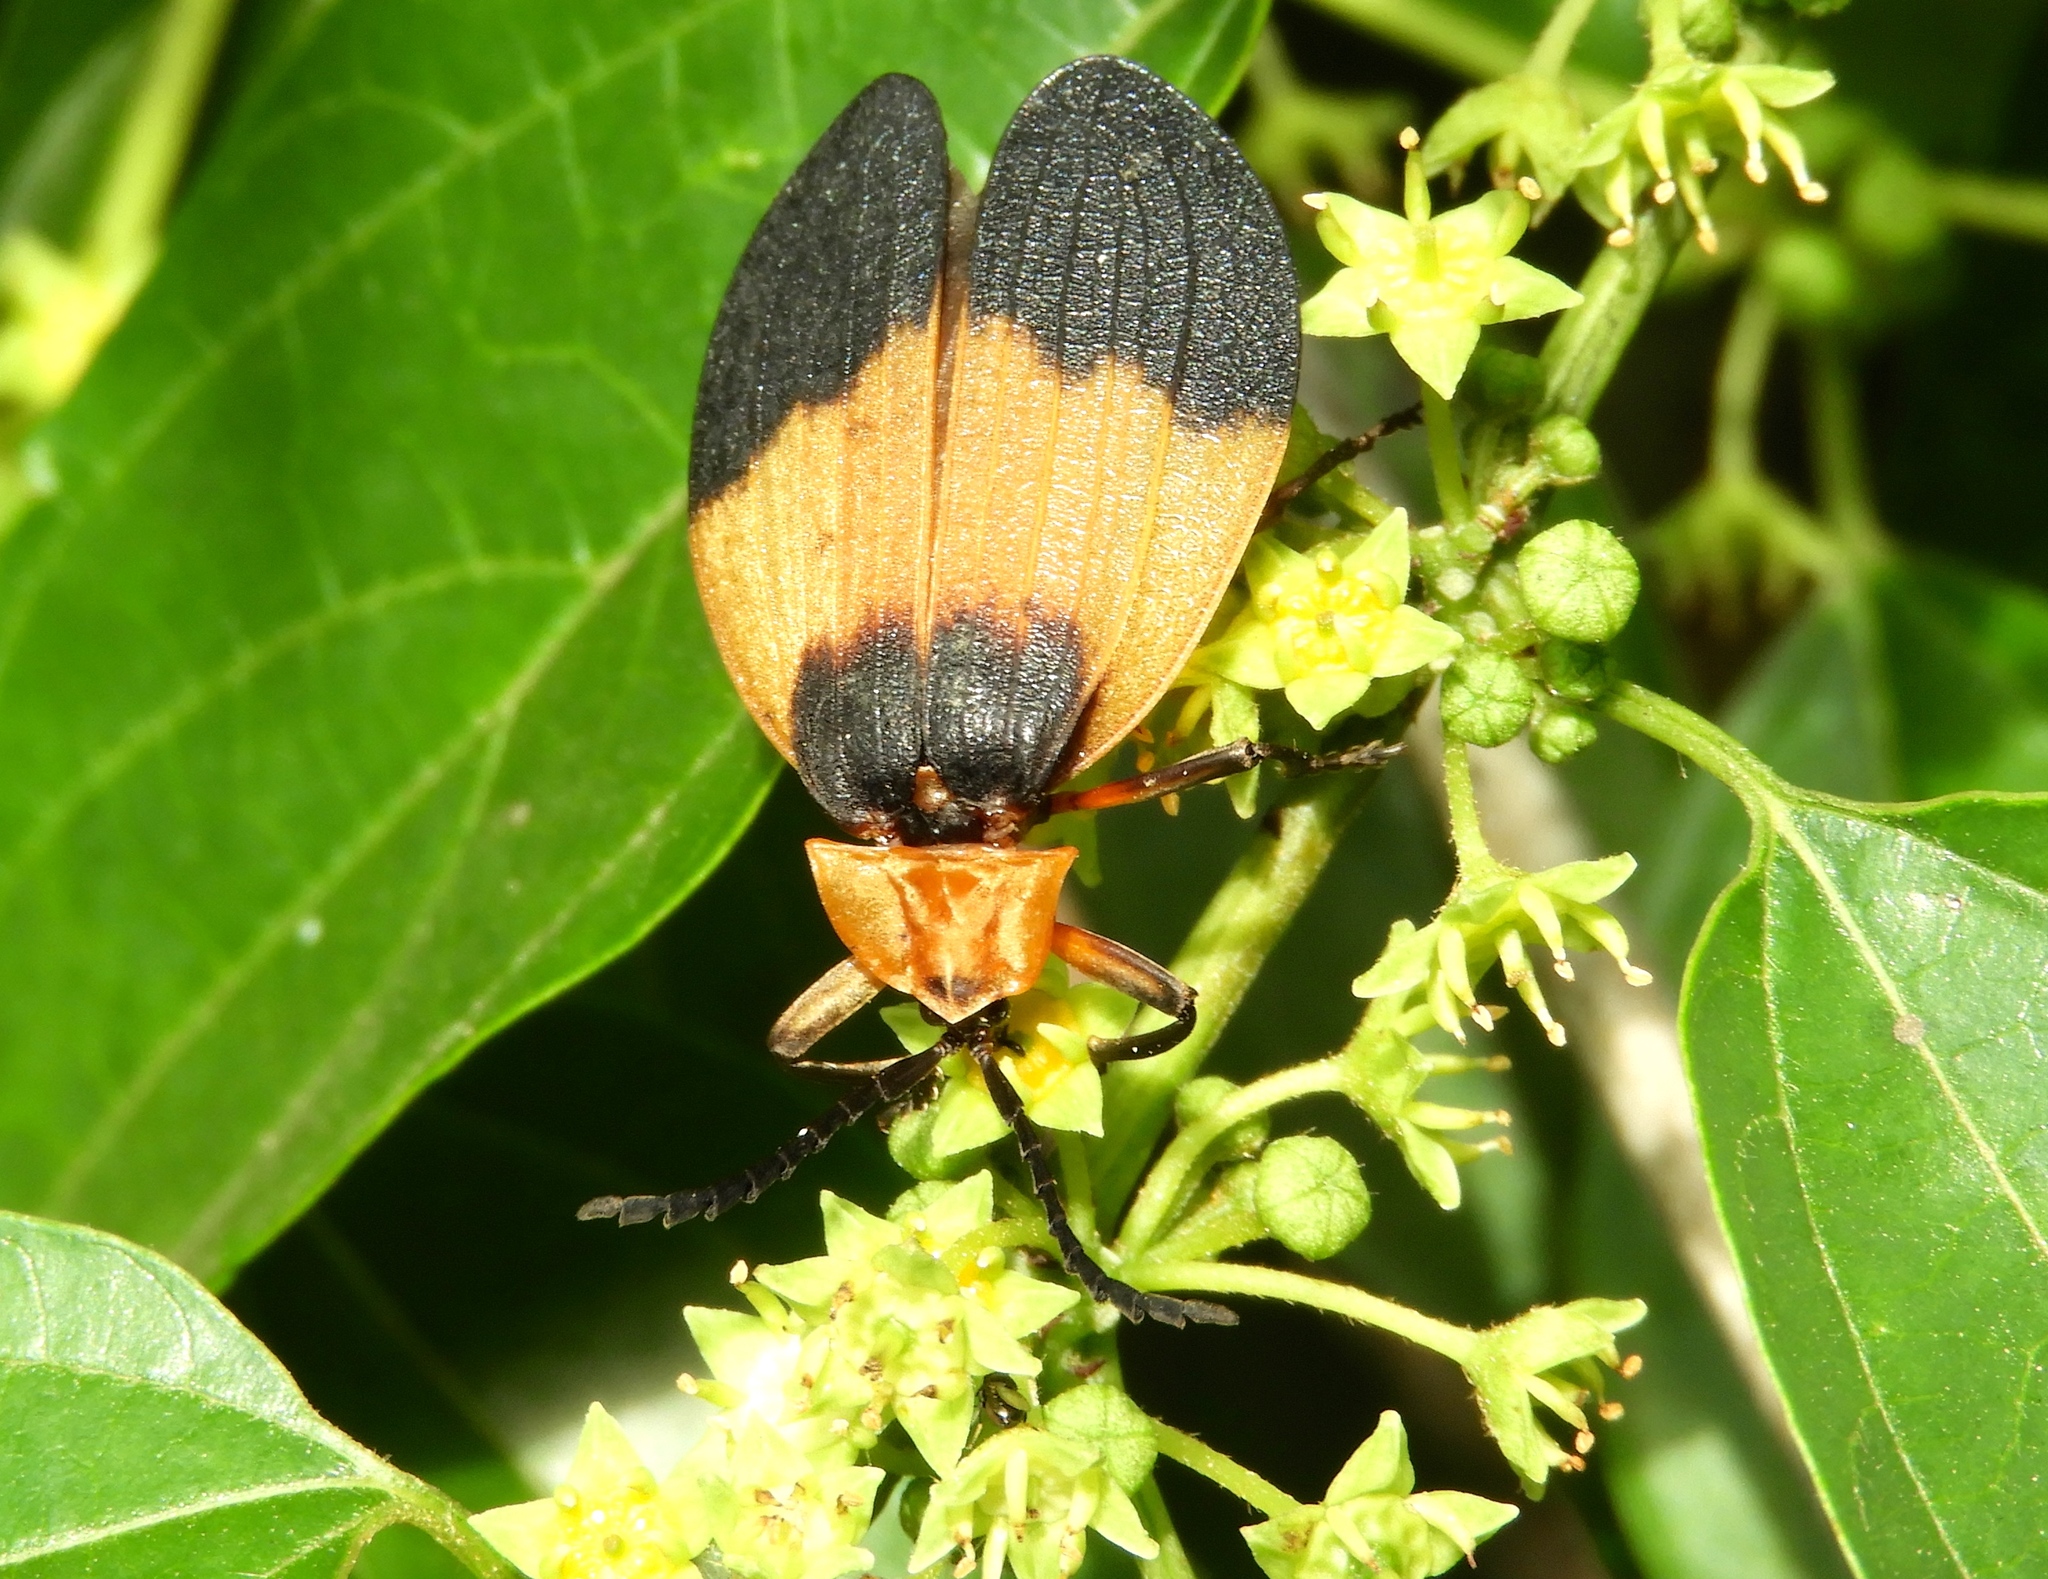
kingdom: Animalia
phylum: Arthropoda
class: Insecta
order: Coleoptera
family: Lycidae
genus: Lycus
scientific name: Lycus
